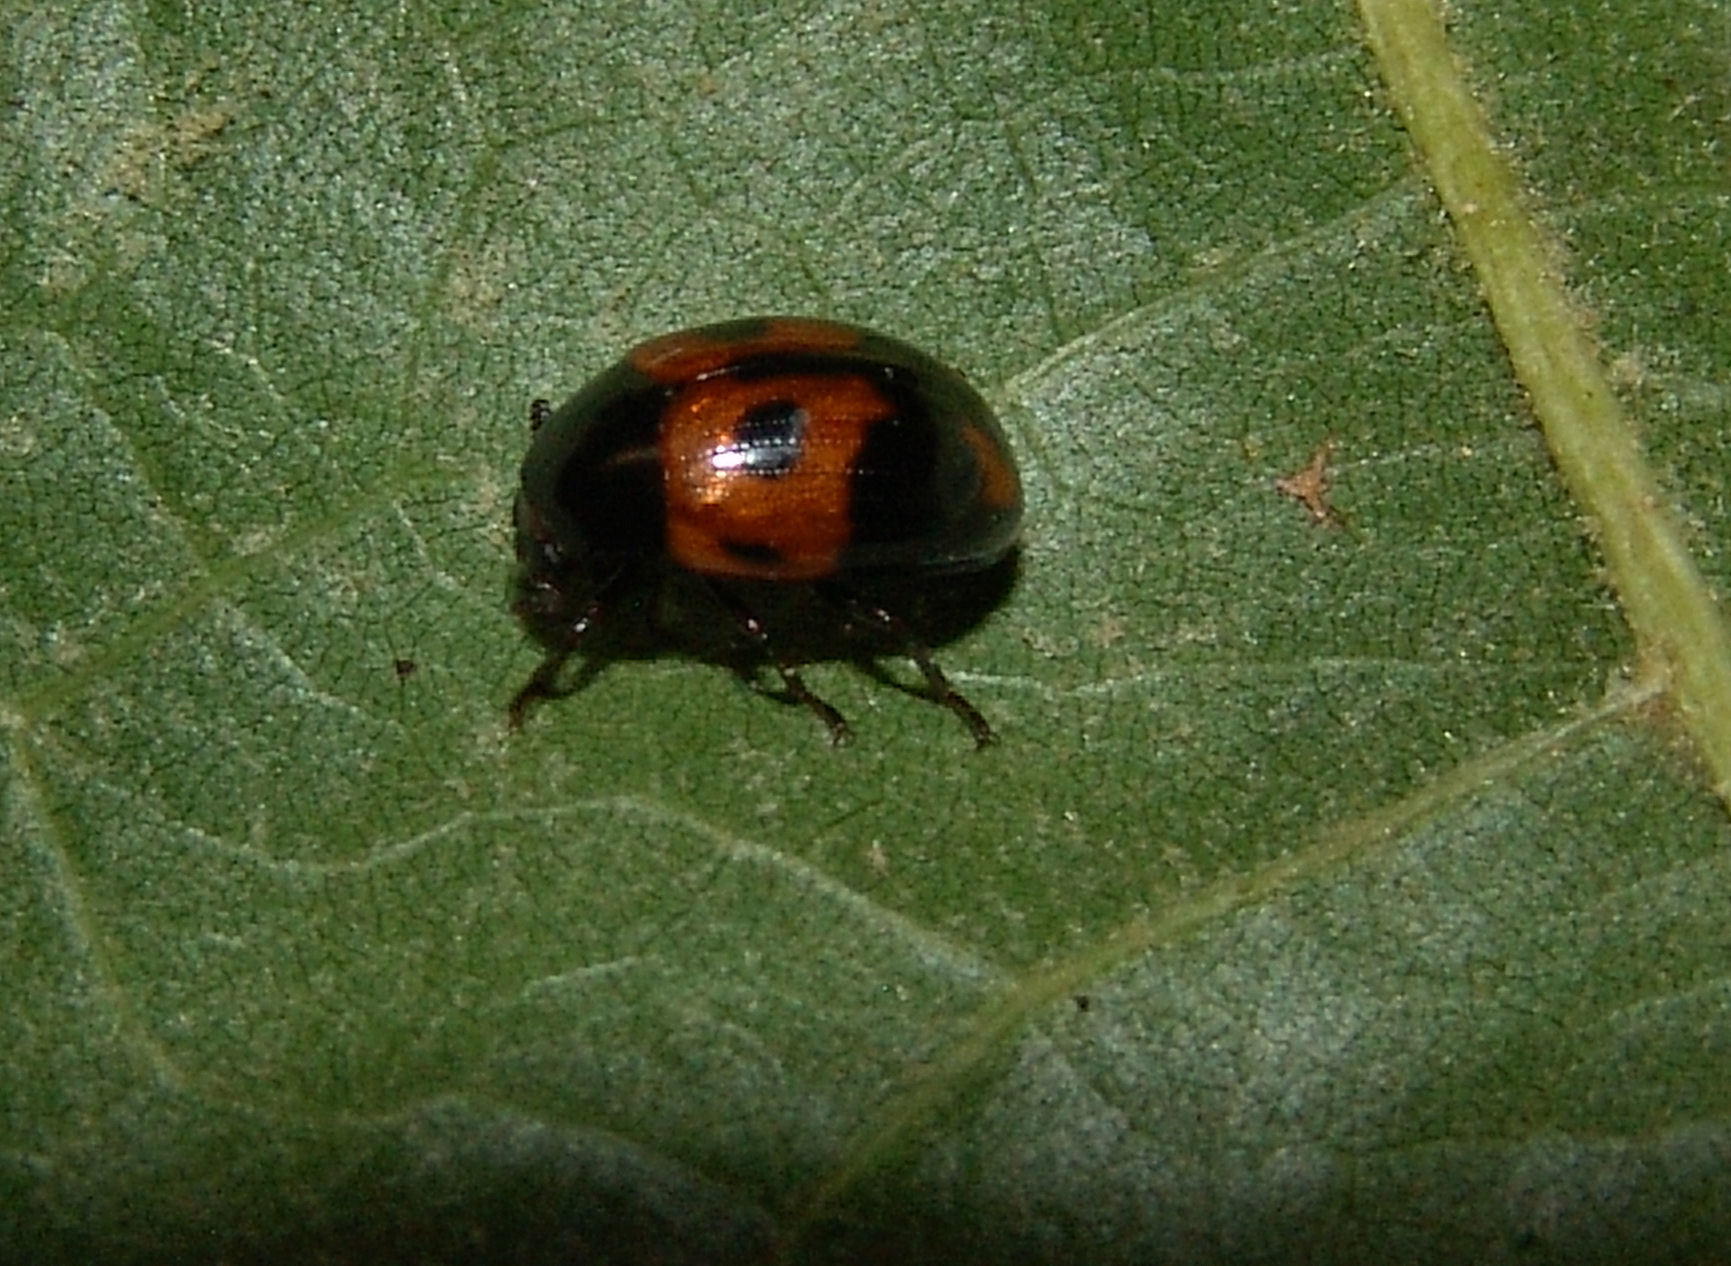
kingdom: Animalia
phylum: Arthropoda
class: Insecta
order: Coleoptera
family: Tenebrionidae
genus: Diaperis
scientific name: Diaperis maculata
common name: Darkling beetle
